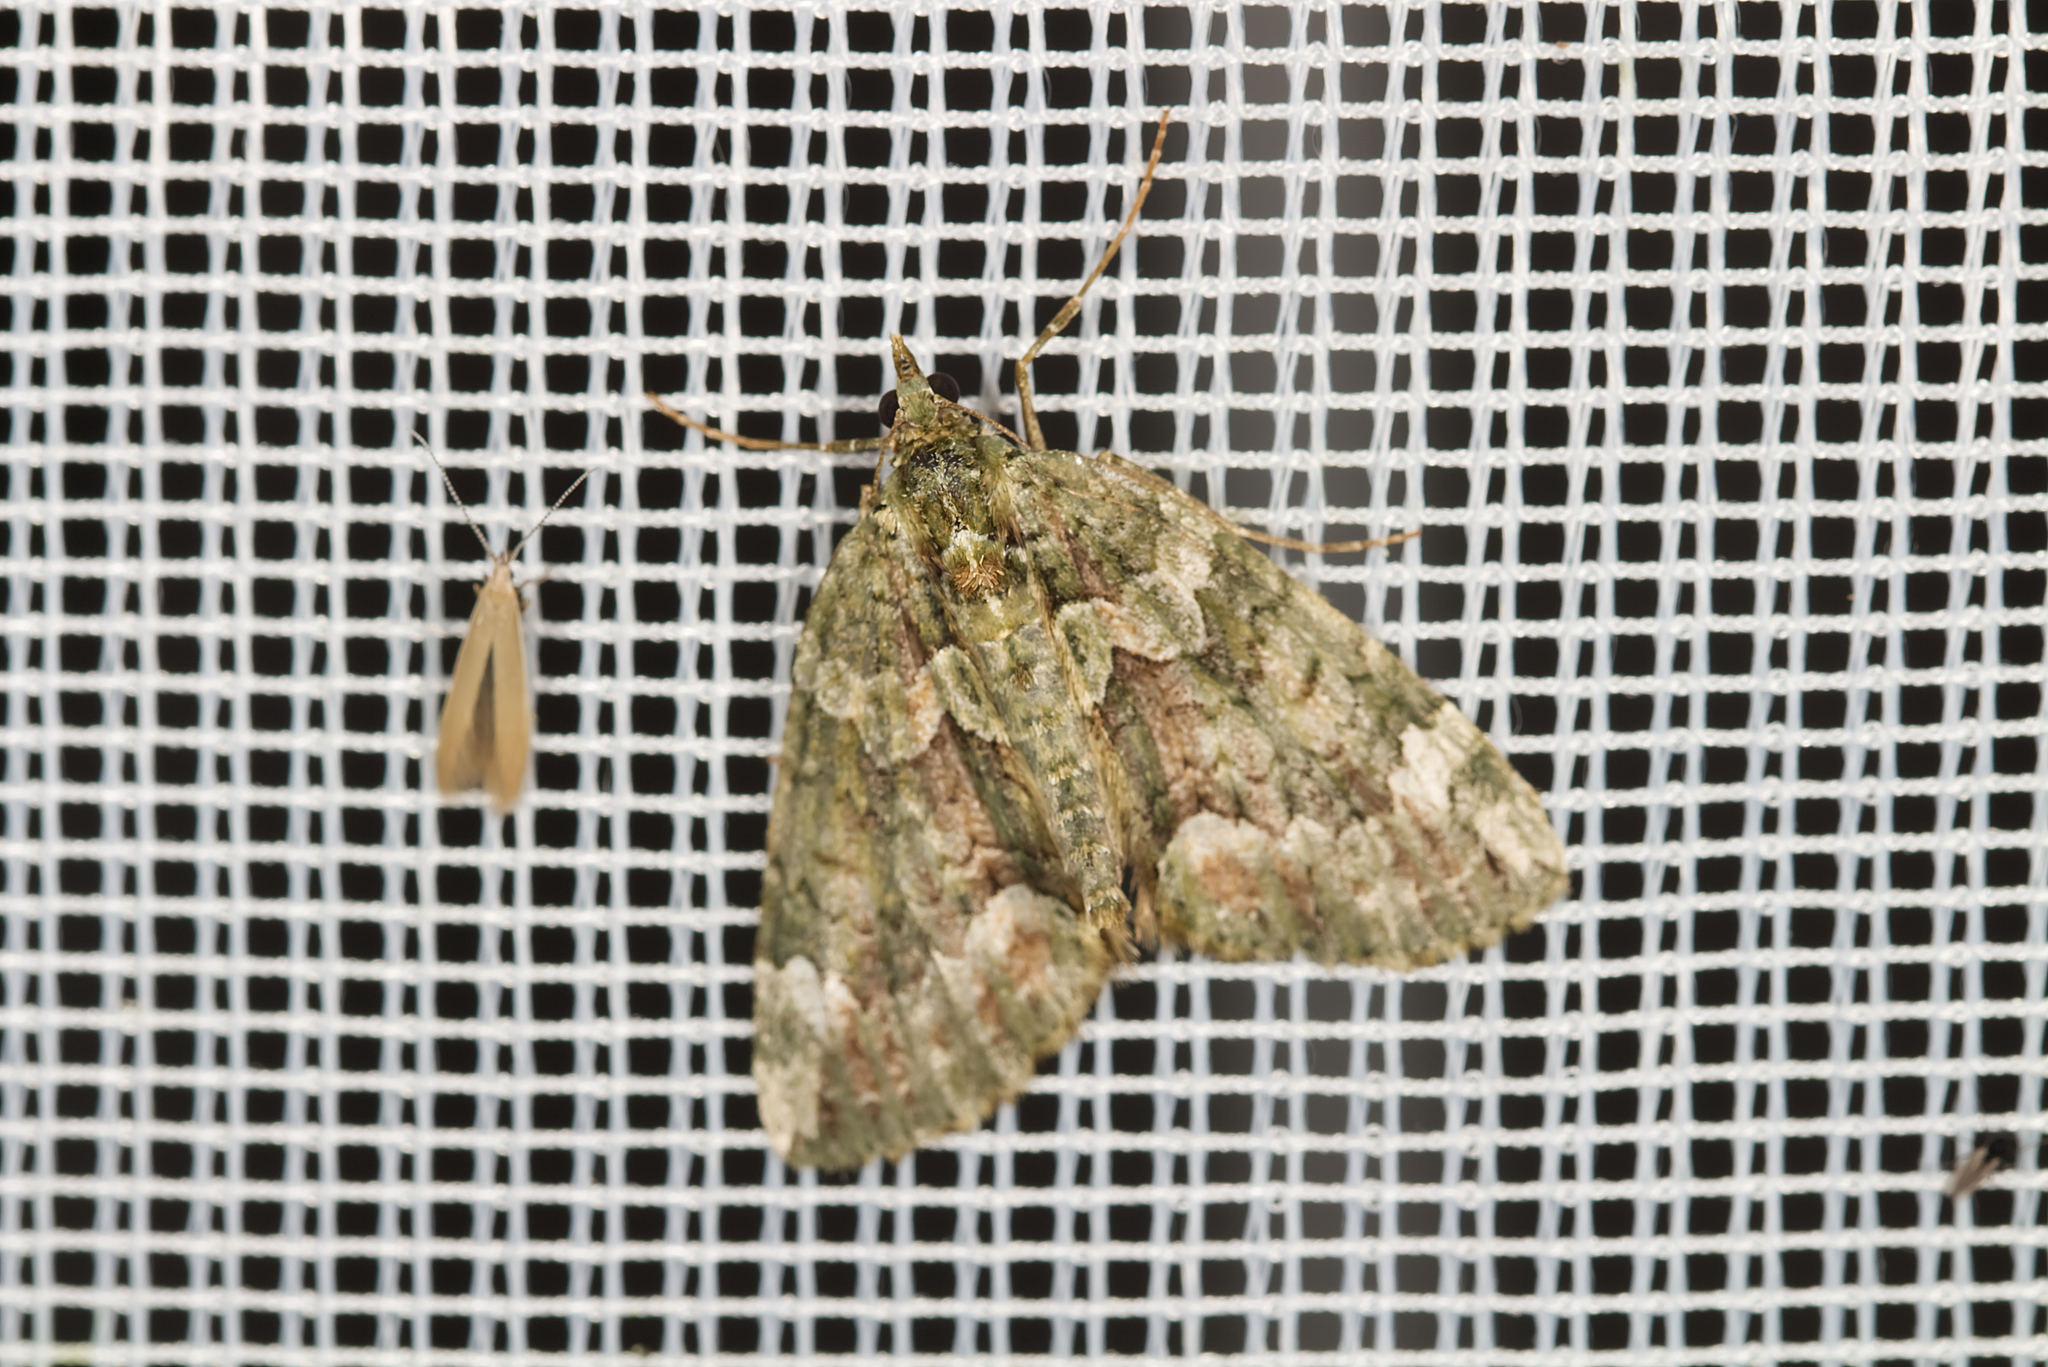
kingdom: Animalia
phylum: Arthropoda
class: Insecta
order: Lepidoptera
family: Geometridae
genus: Chloroclysta
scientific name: Chloroclysta siterata
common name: Red-green carpet
